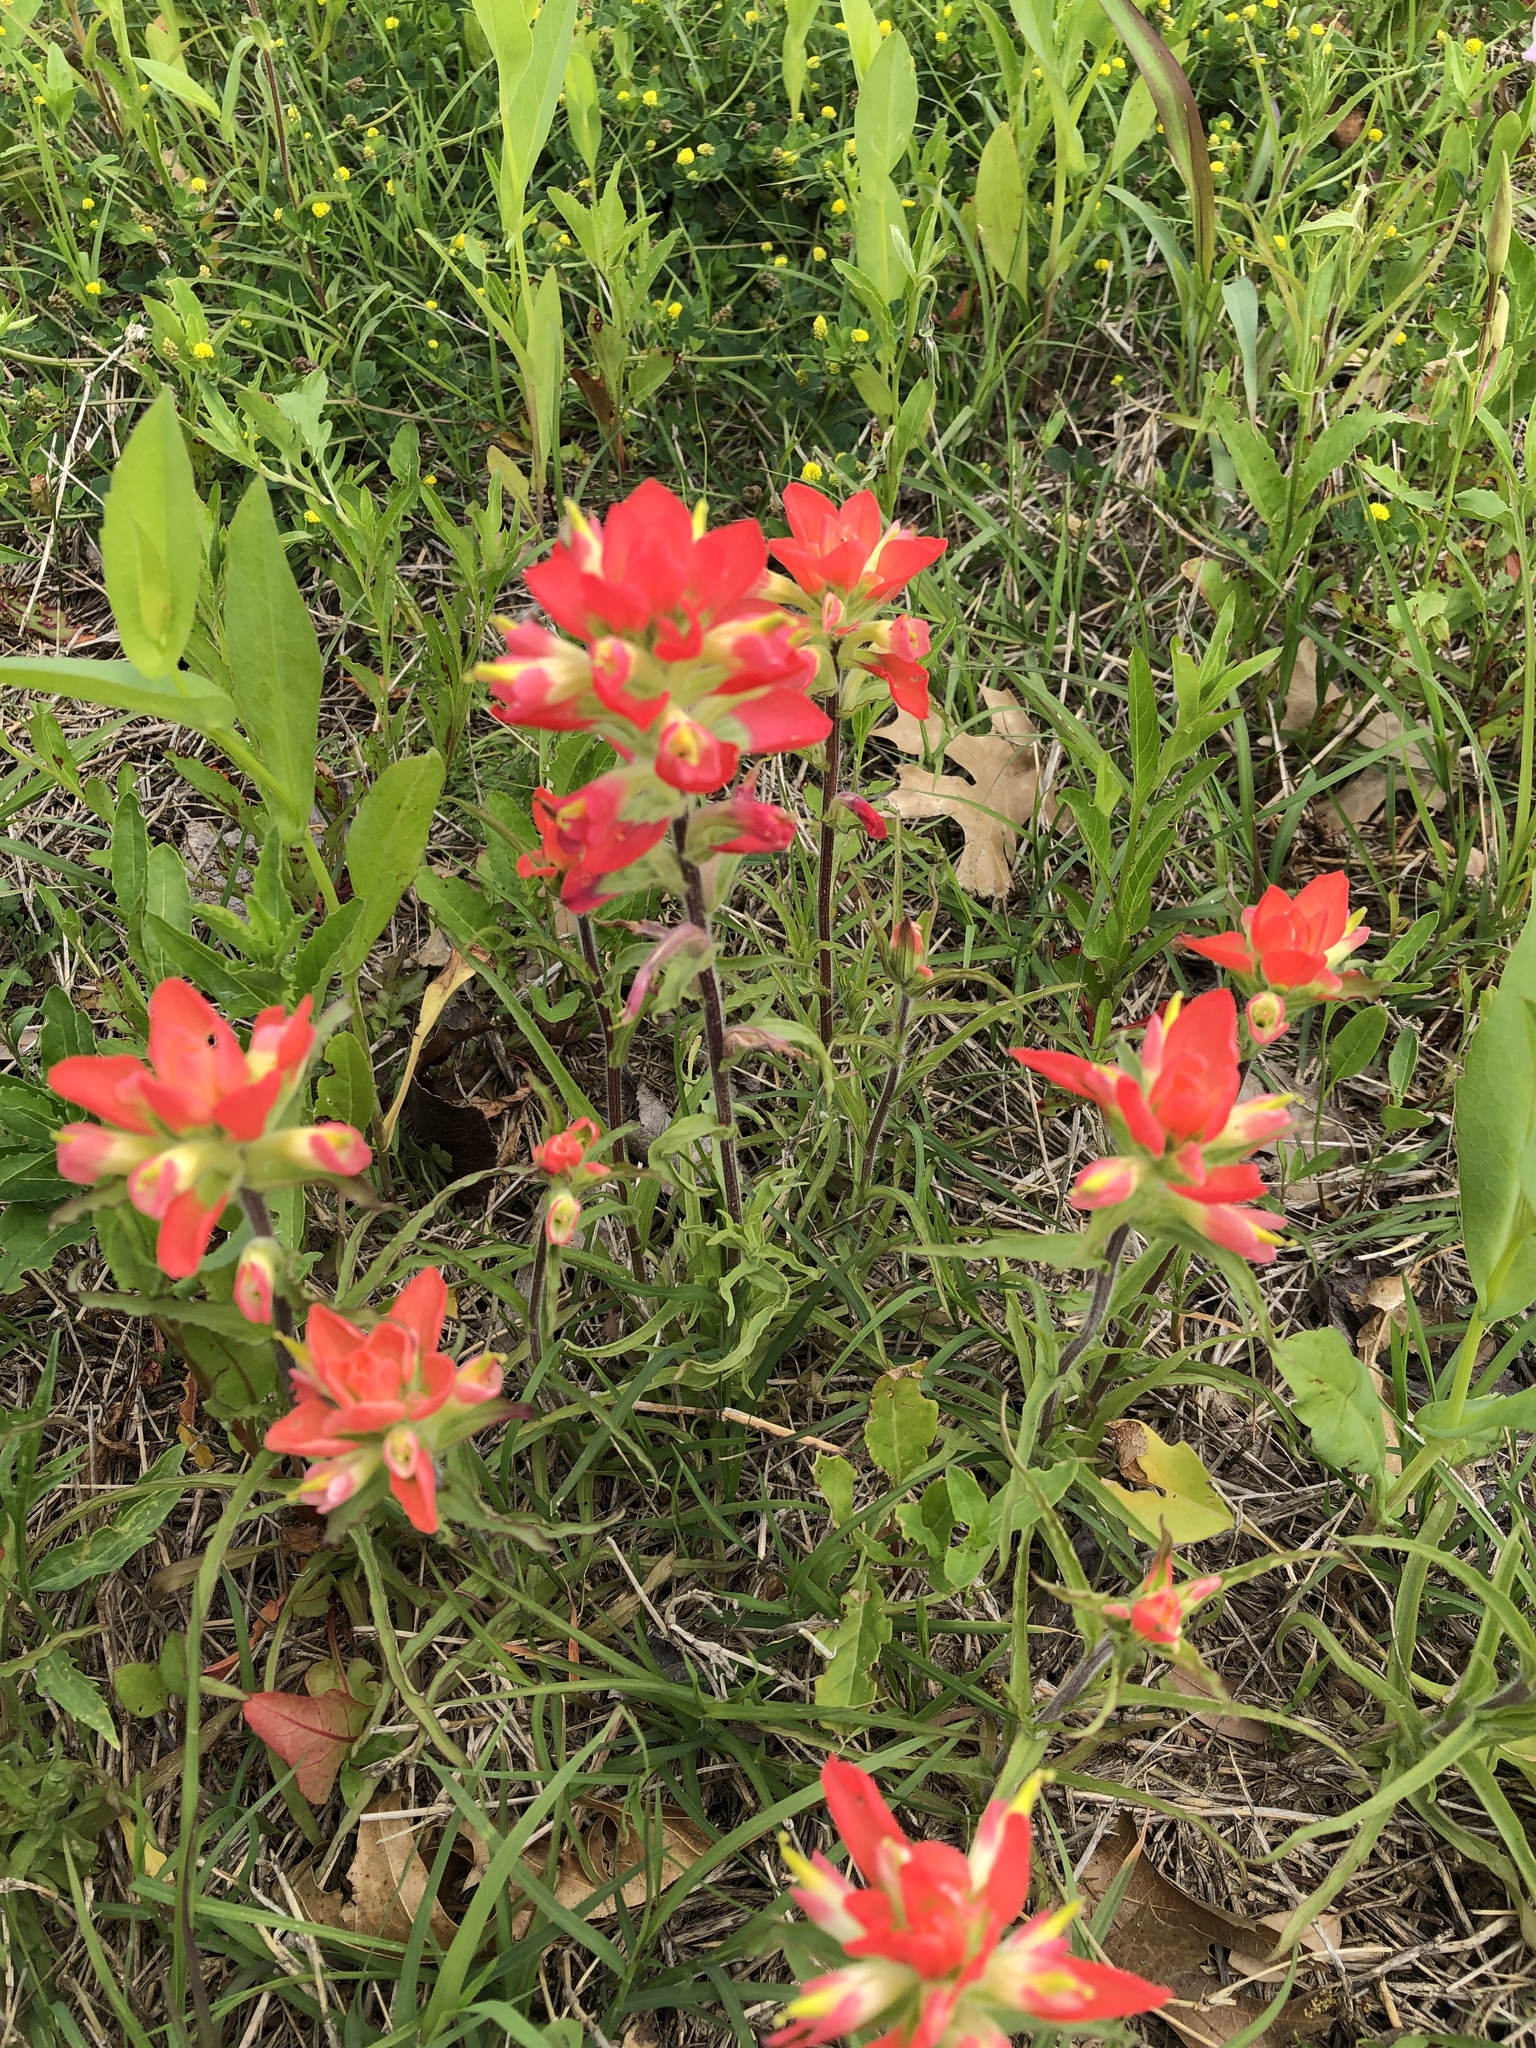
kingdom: Plantae
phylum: Tracheophyta
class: Magnoliopsida
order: Lamiales
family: Orobanchaceae
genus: Castilleja
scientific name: Castilleja indivisa
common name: Texas paintbrush
